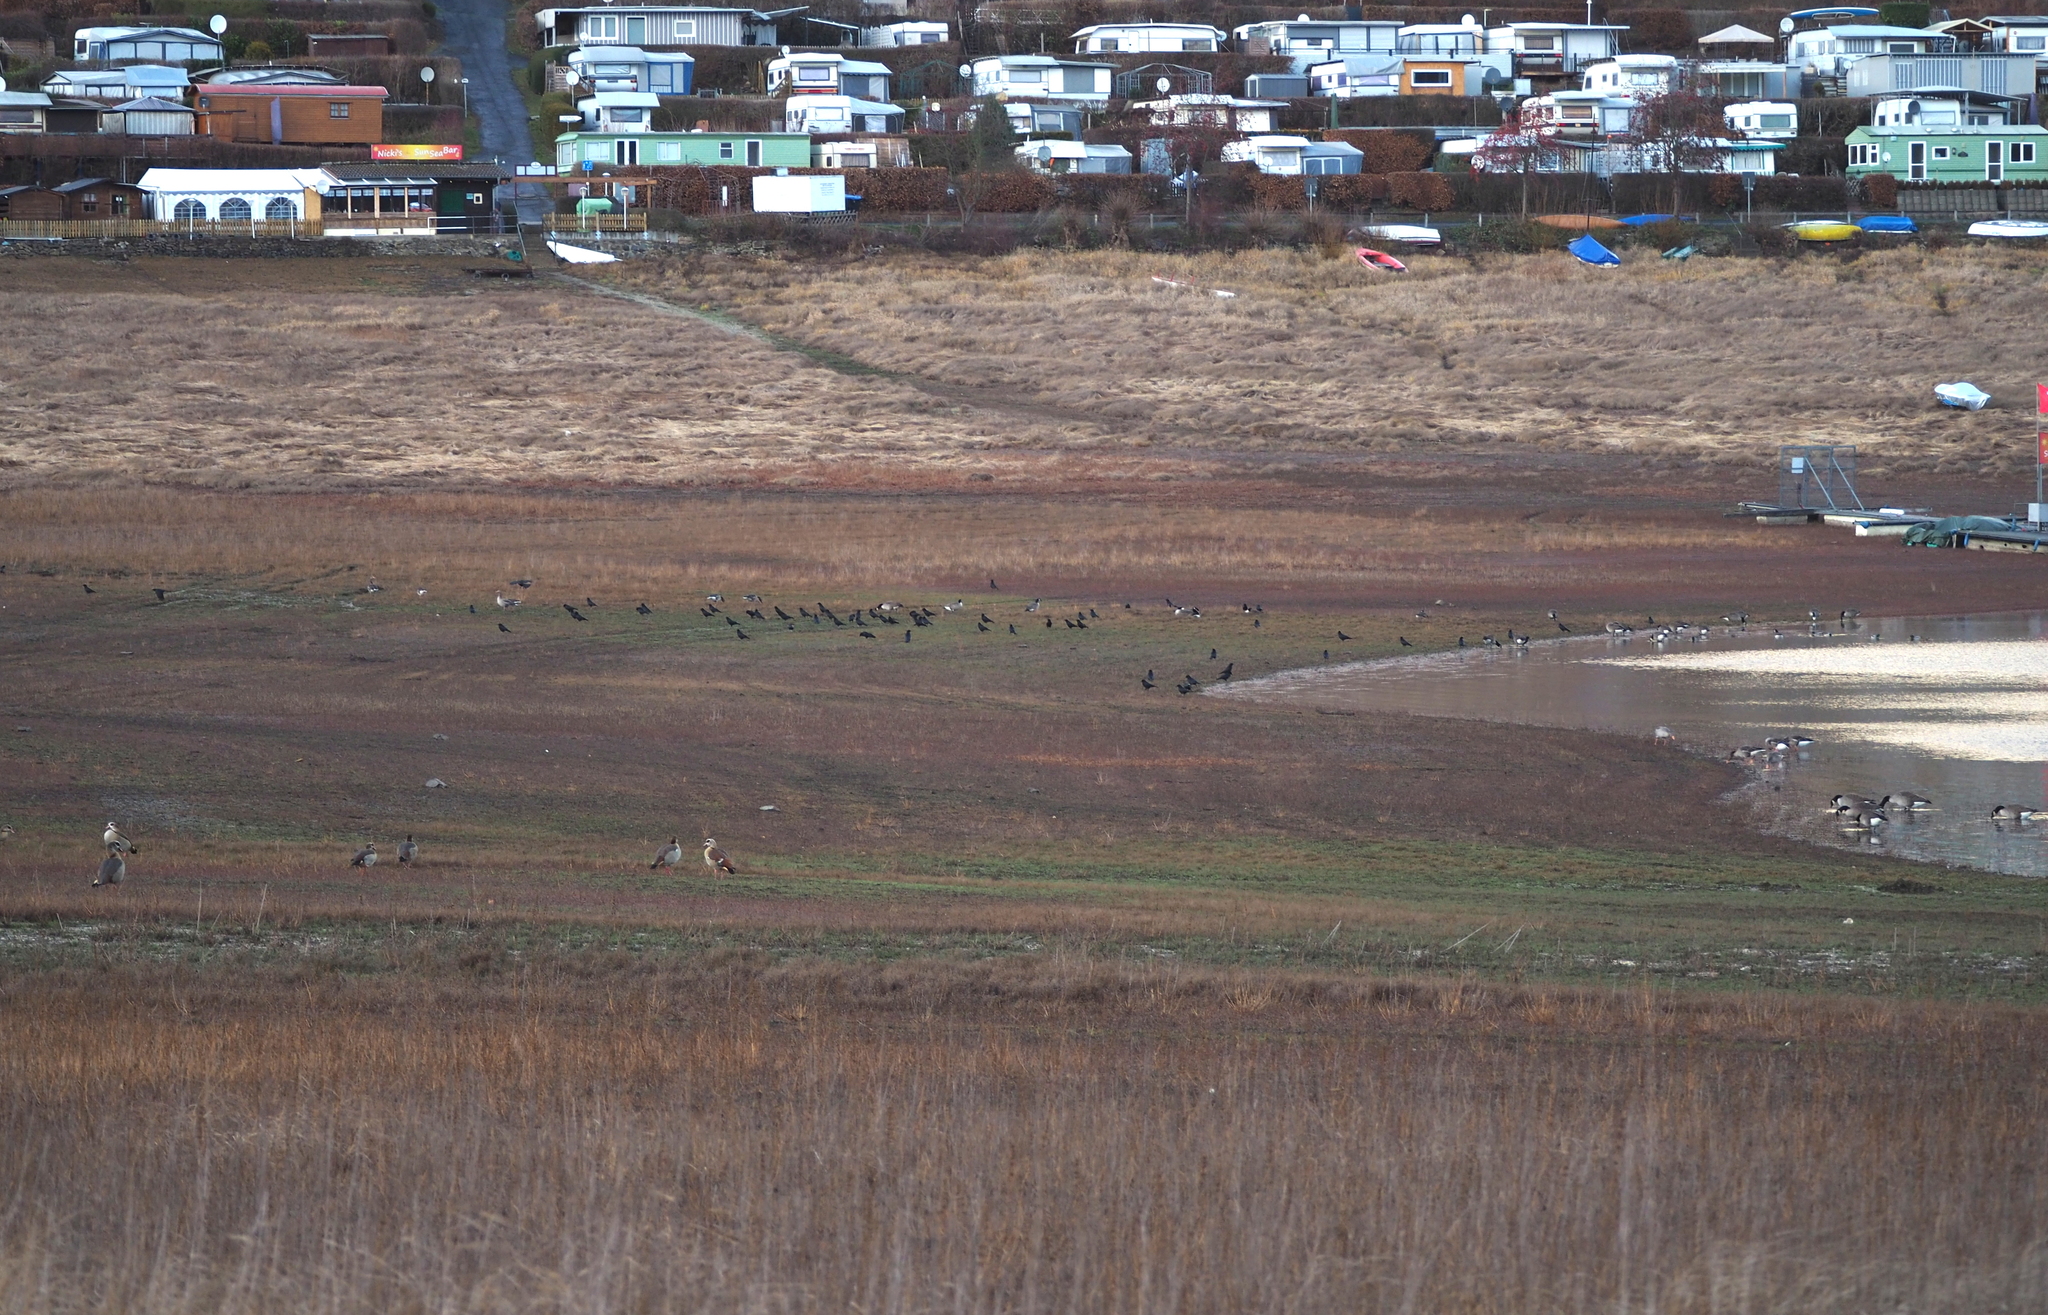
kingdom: Animalia
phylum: Chordata
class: Aves
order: Anseriformes
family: Anatidae
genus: Alopochen
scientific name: Alopochen aegyptiaca
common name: Egyptian goose
